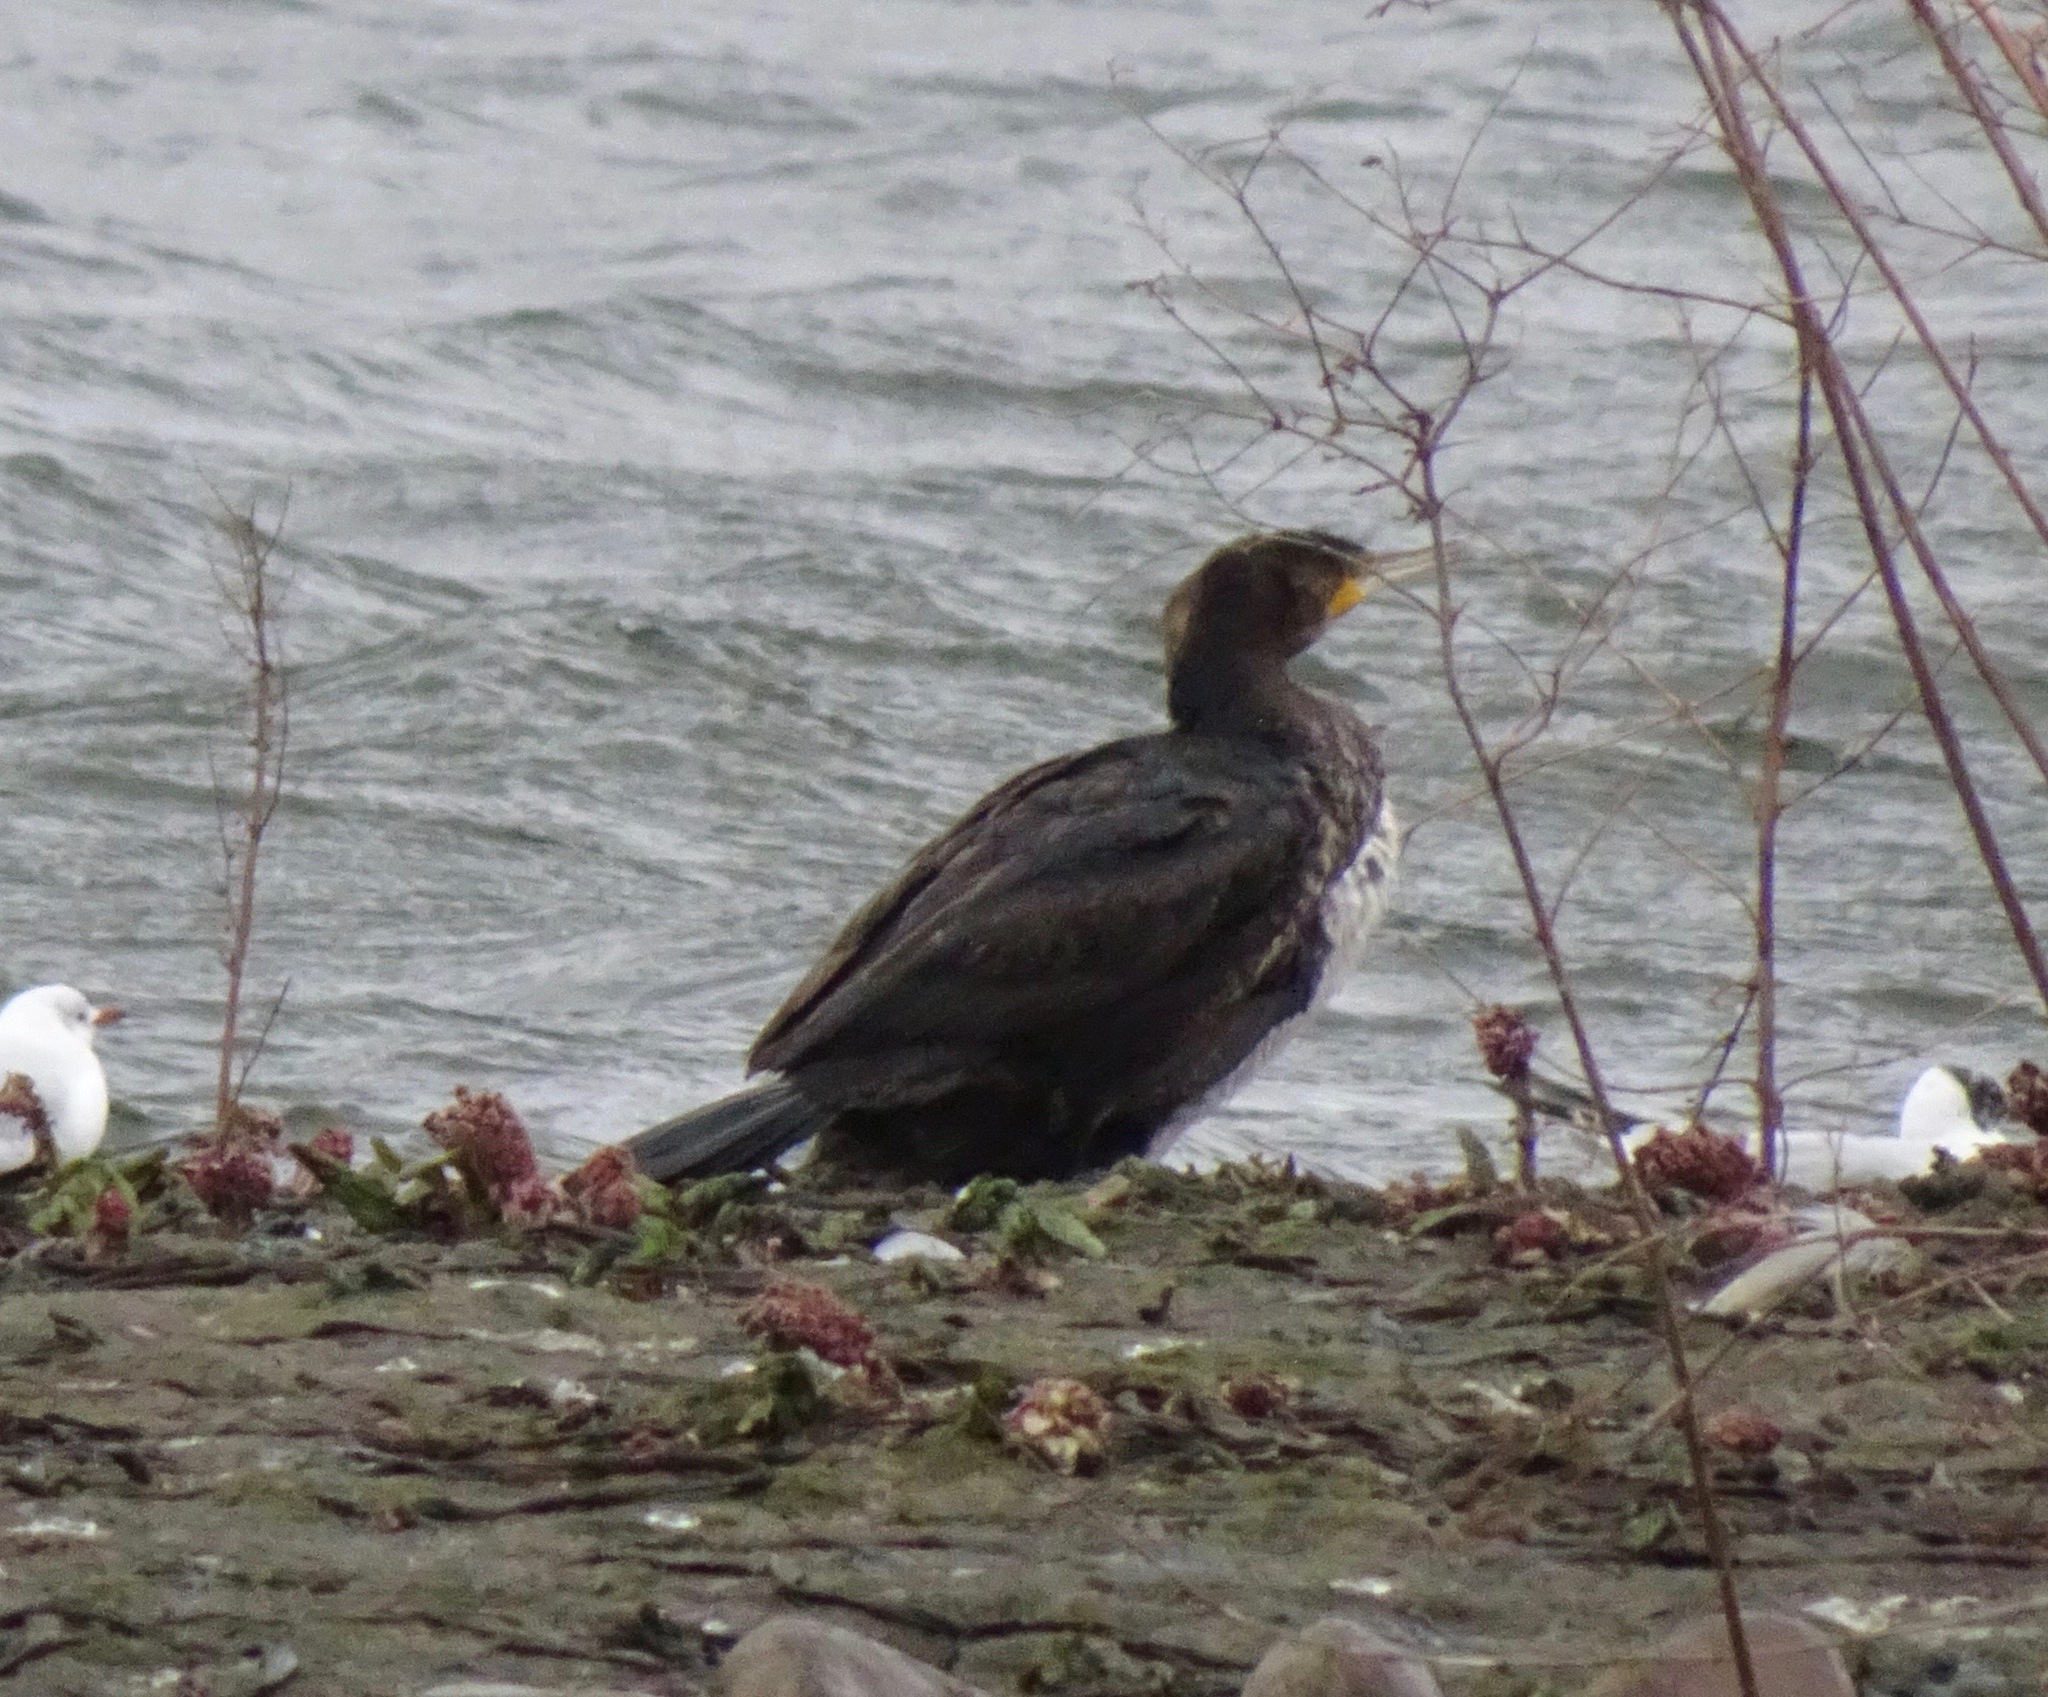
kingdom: Animalia
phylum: Chordata
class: Aves
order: Suliformes
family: Phalacrocoracidae
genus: Phalacrocorax
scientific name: Phalacrocorax carbo
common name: Great cormorant
